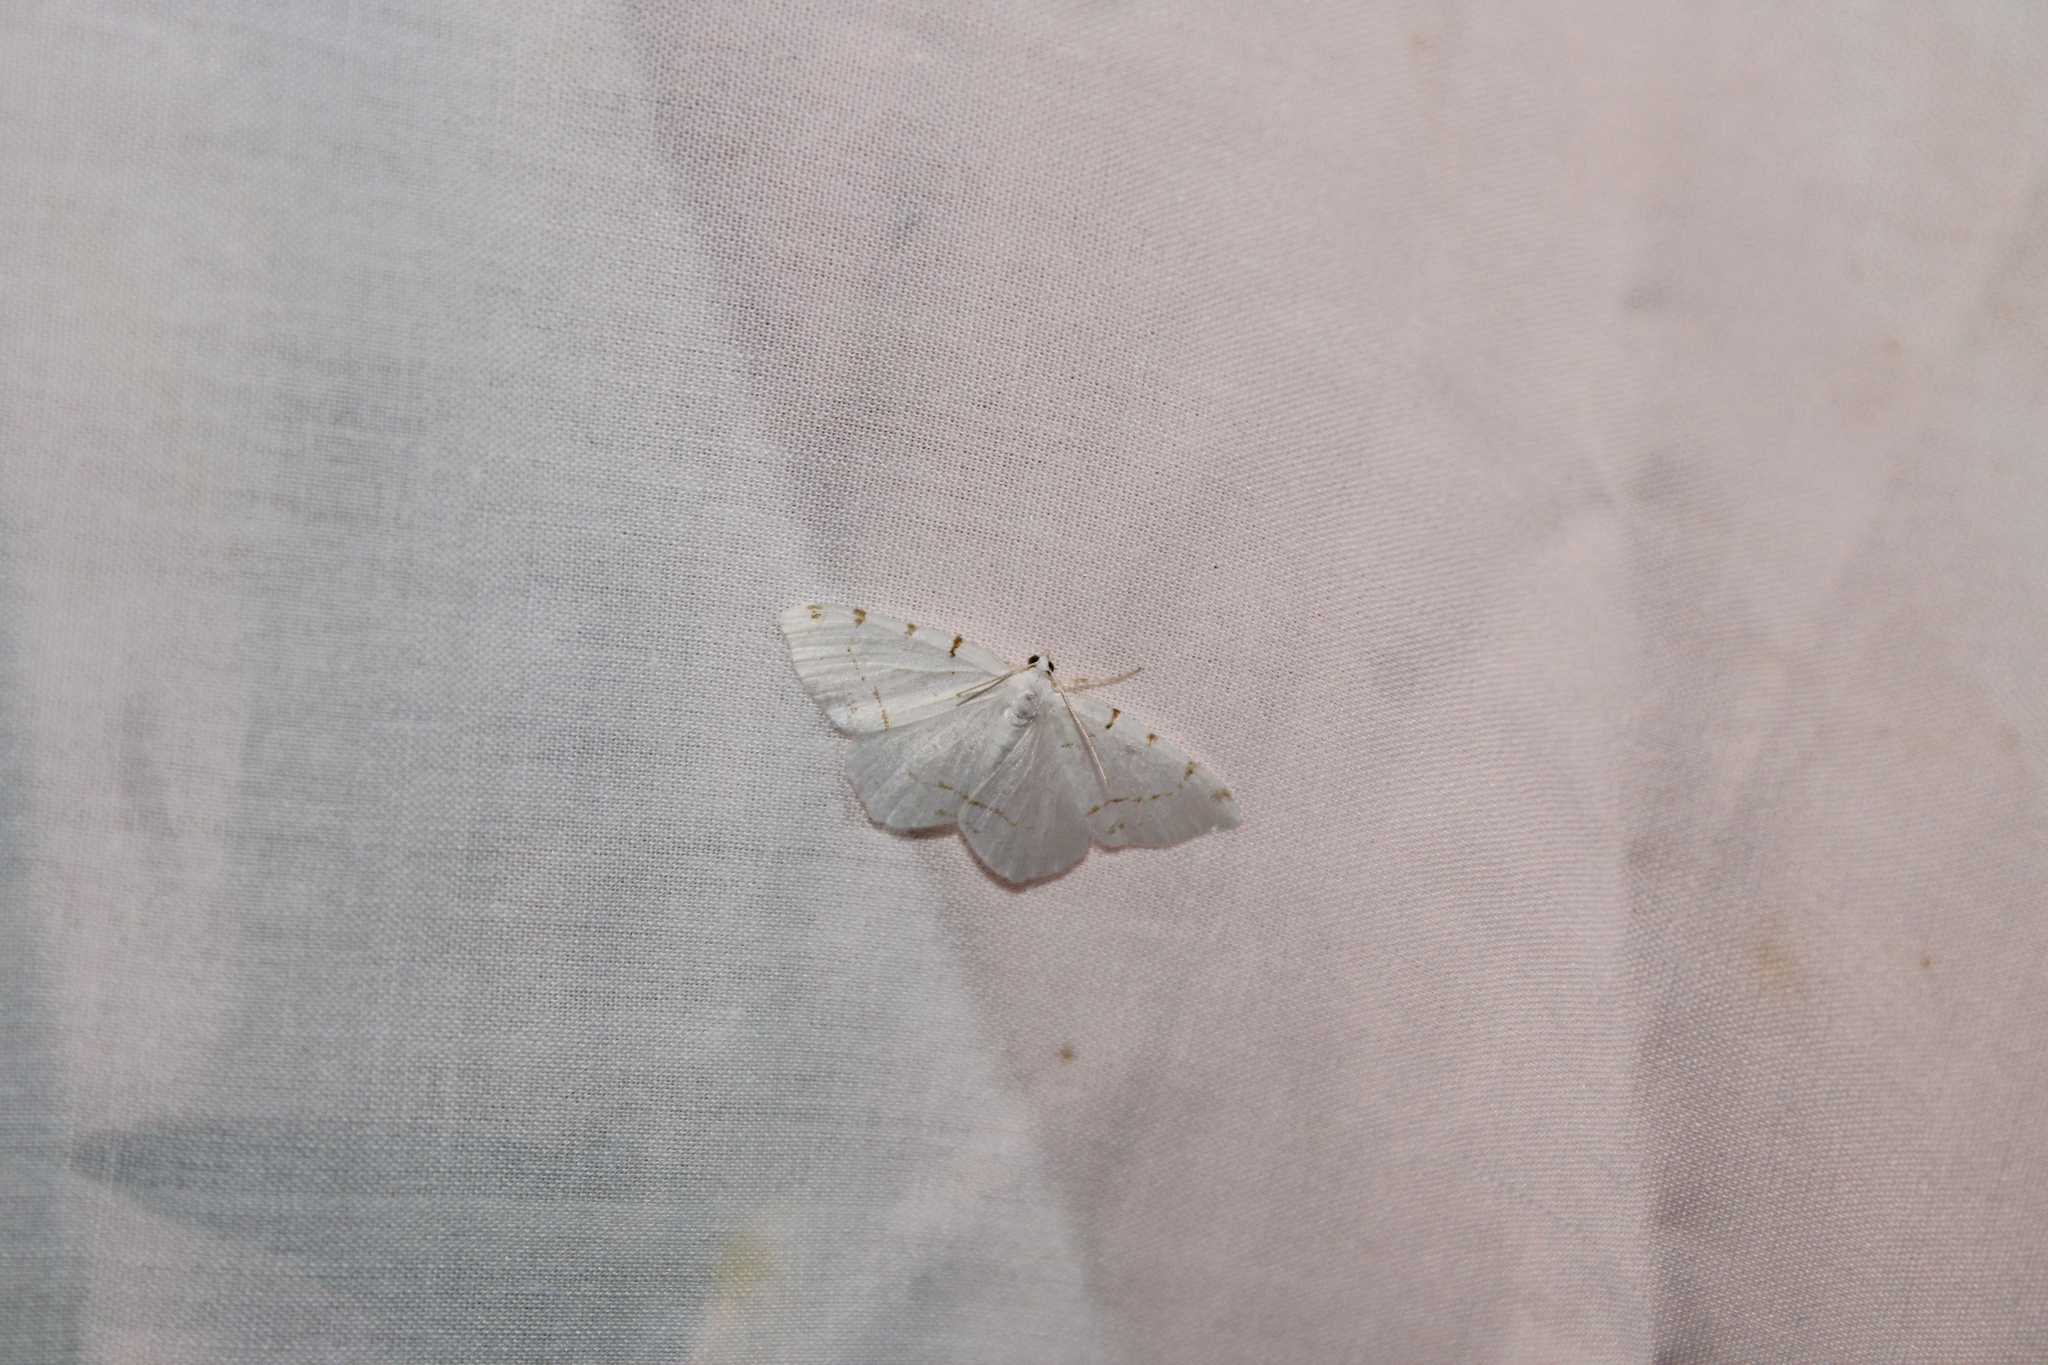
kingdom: Animalia
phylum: Arthropoda
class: Insecta
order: Lepidoptera
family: Geometridae
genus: Macaria
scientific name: Macaria pustularia
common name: Lesser maple spanworm moth
